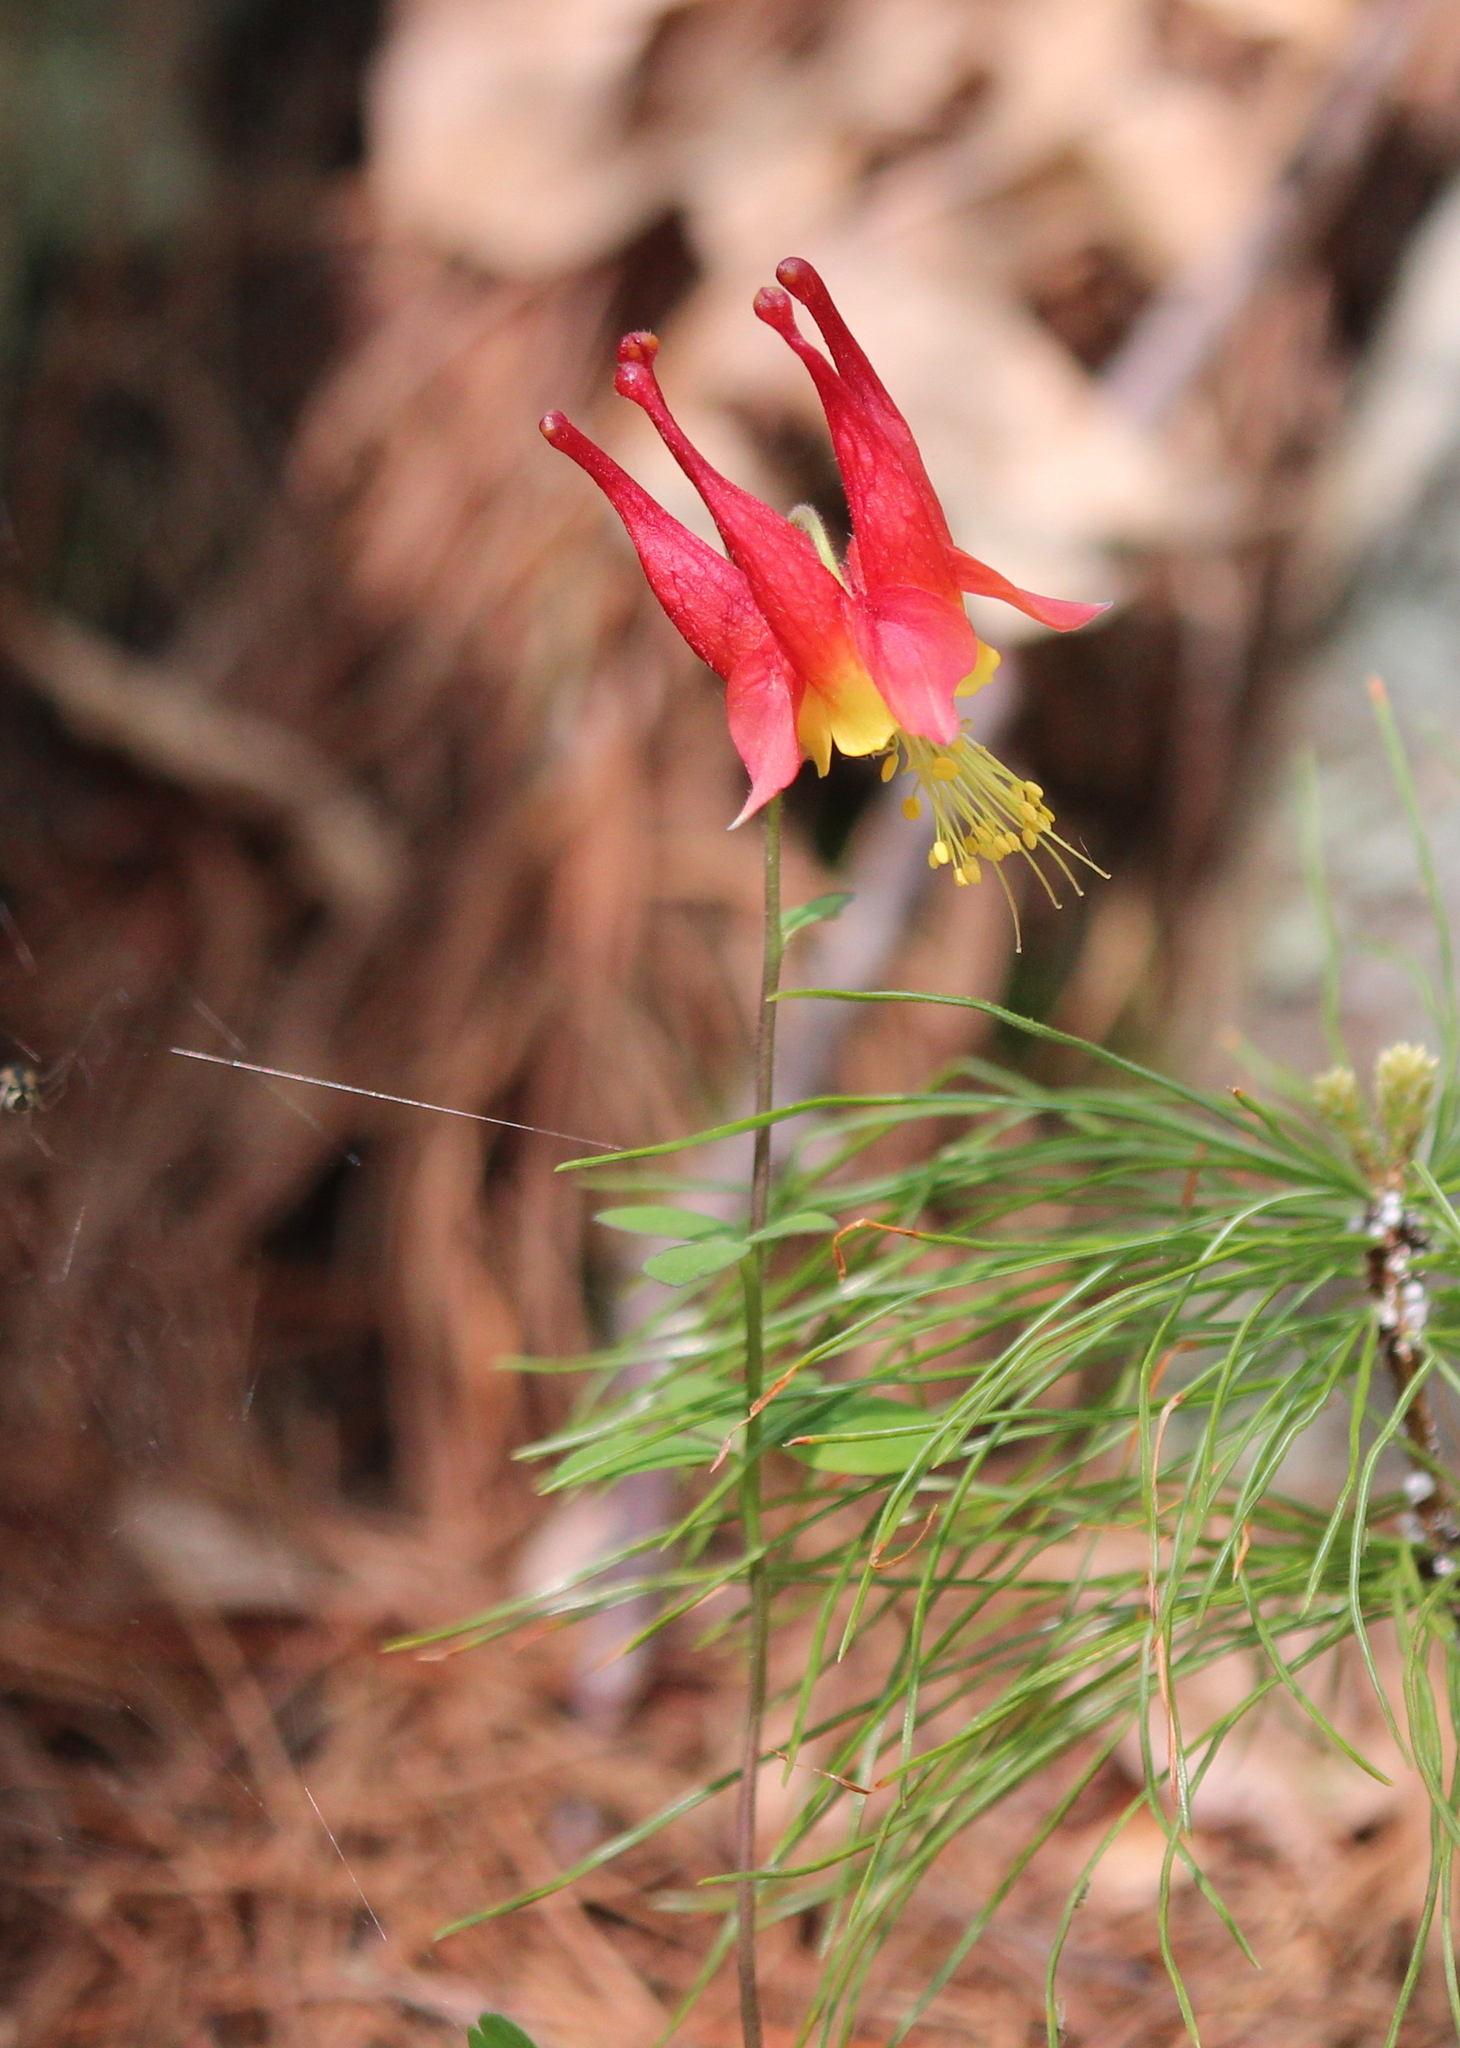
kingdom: Plantae
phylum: Tracheophyta
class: Magnoliopsida
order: Ranunculales
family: Ranunculaceae
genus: Aquilegia
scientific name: Aquilegia canadensis
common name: American columbine
